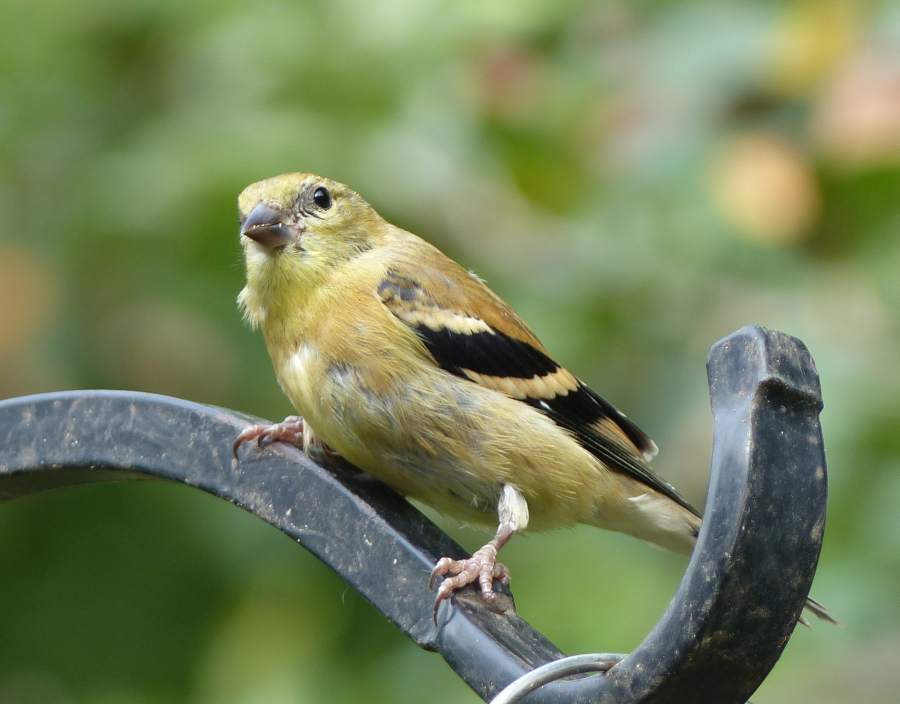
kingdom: Animalia
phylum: Chordata
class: Aves
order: Passeriformes
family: Fringillidae
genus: Spinus
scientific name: Spinus tristis
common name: American goldfinch
